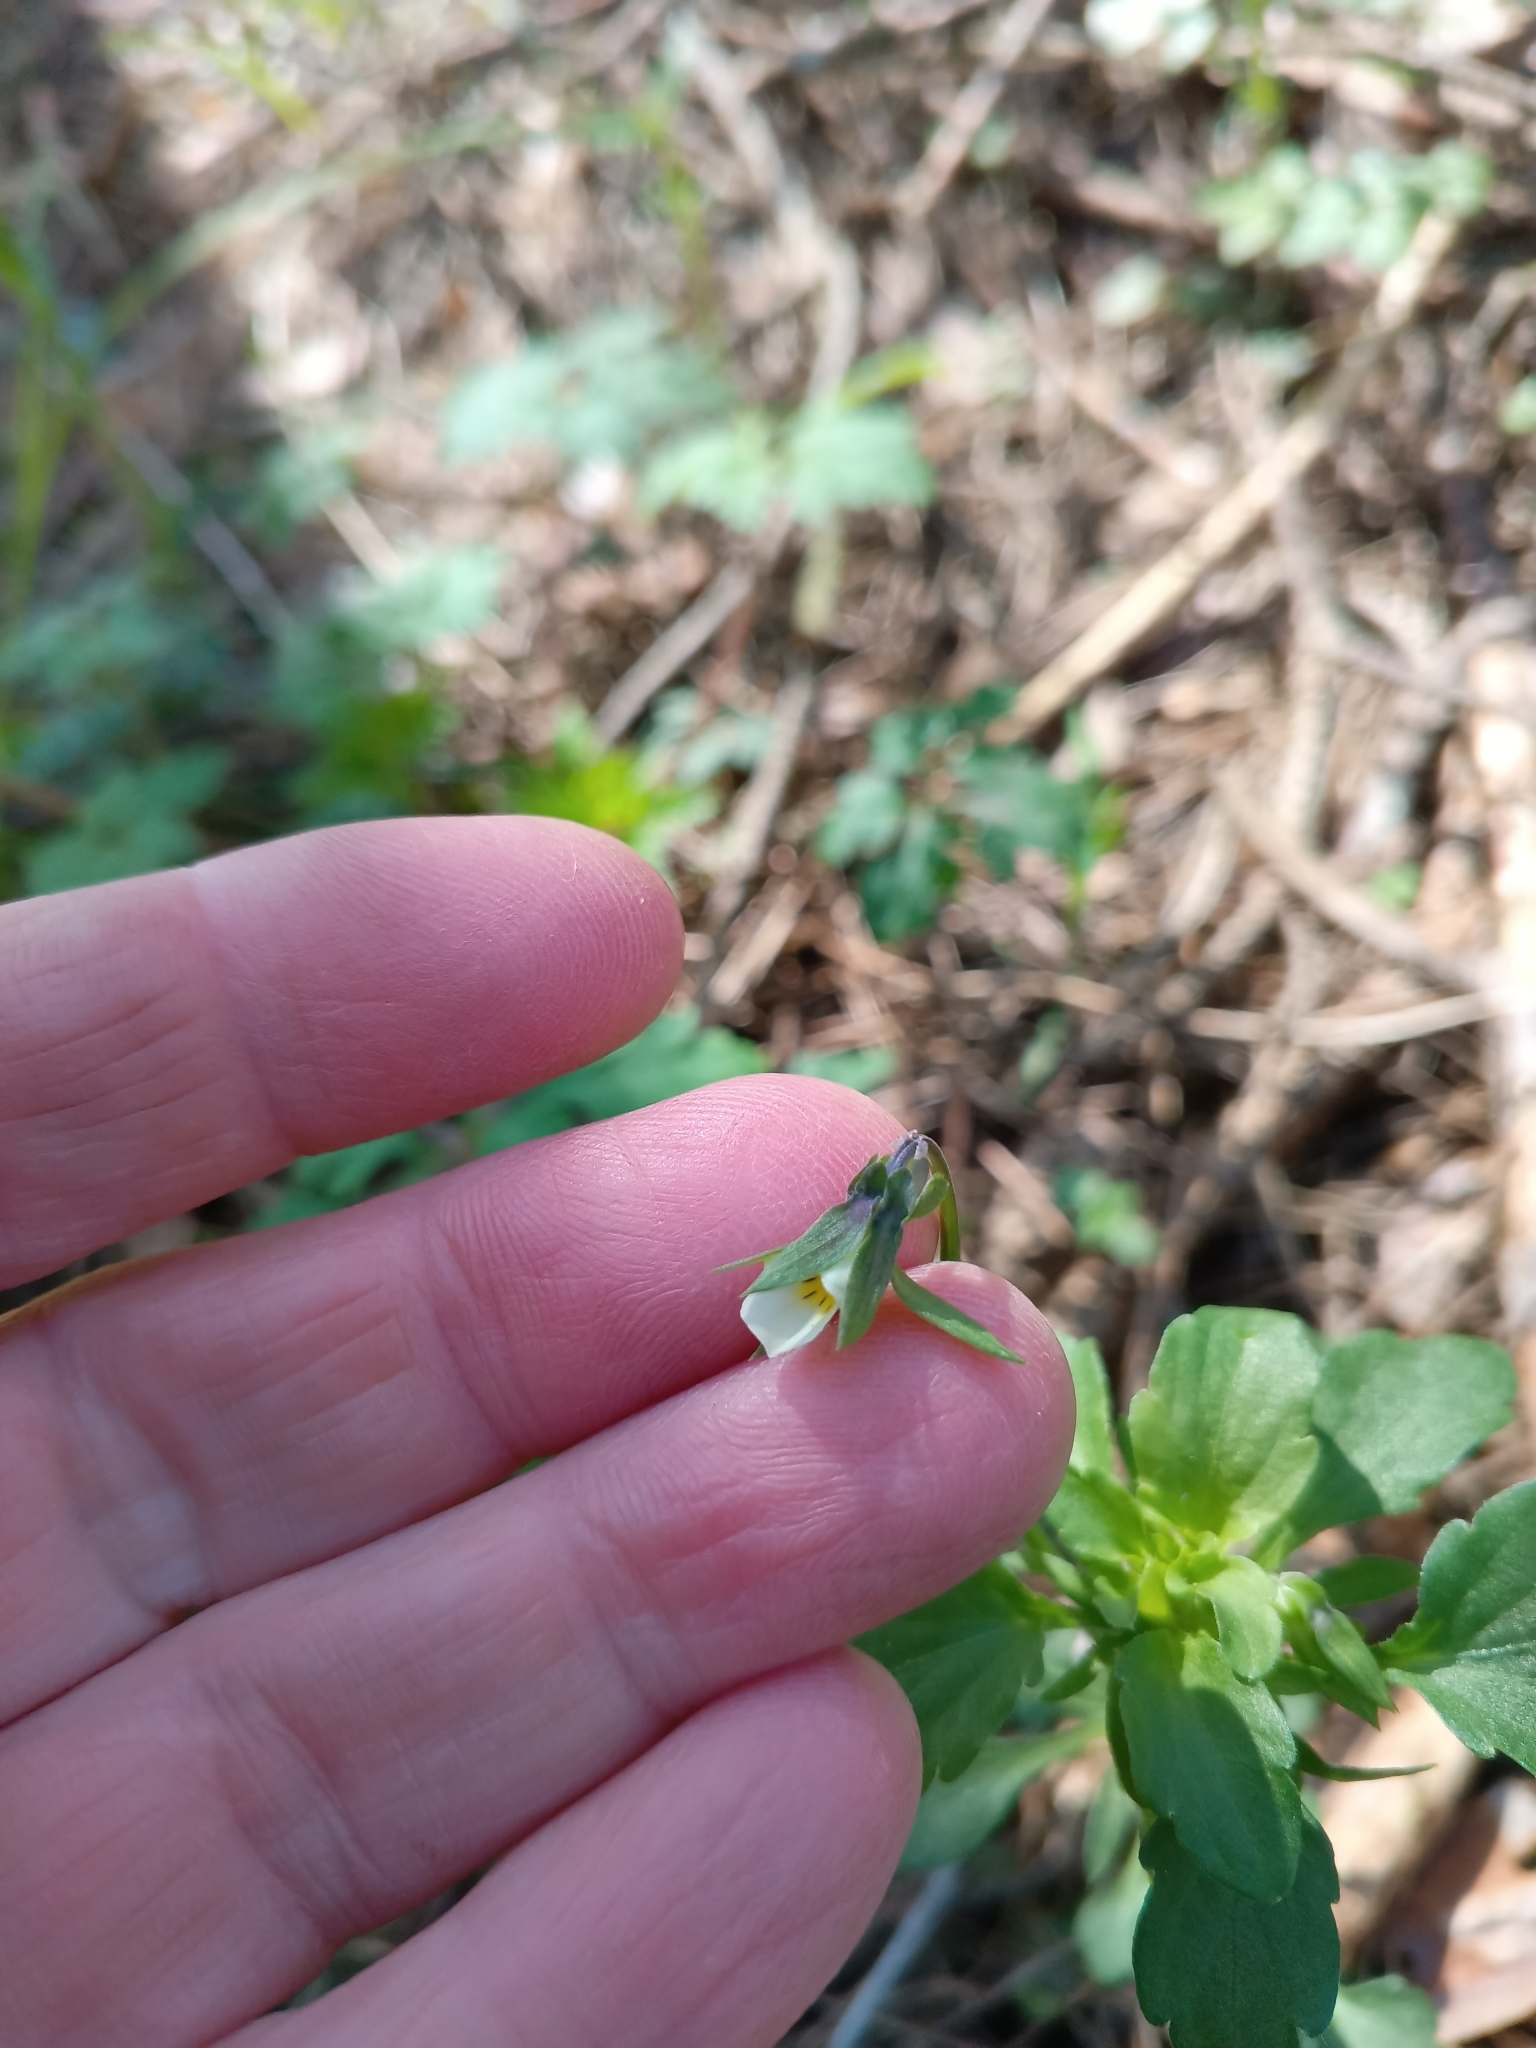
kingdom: Plantae
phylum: Tracheophyta
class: Magnoliopsida
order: Malpighiales
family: Violaceae
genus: Viola
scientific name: Viola arvensis
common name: Field pansy
